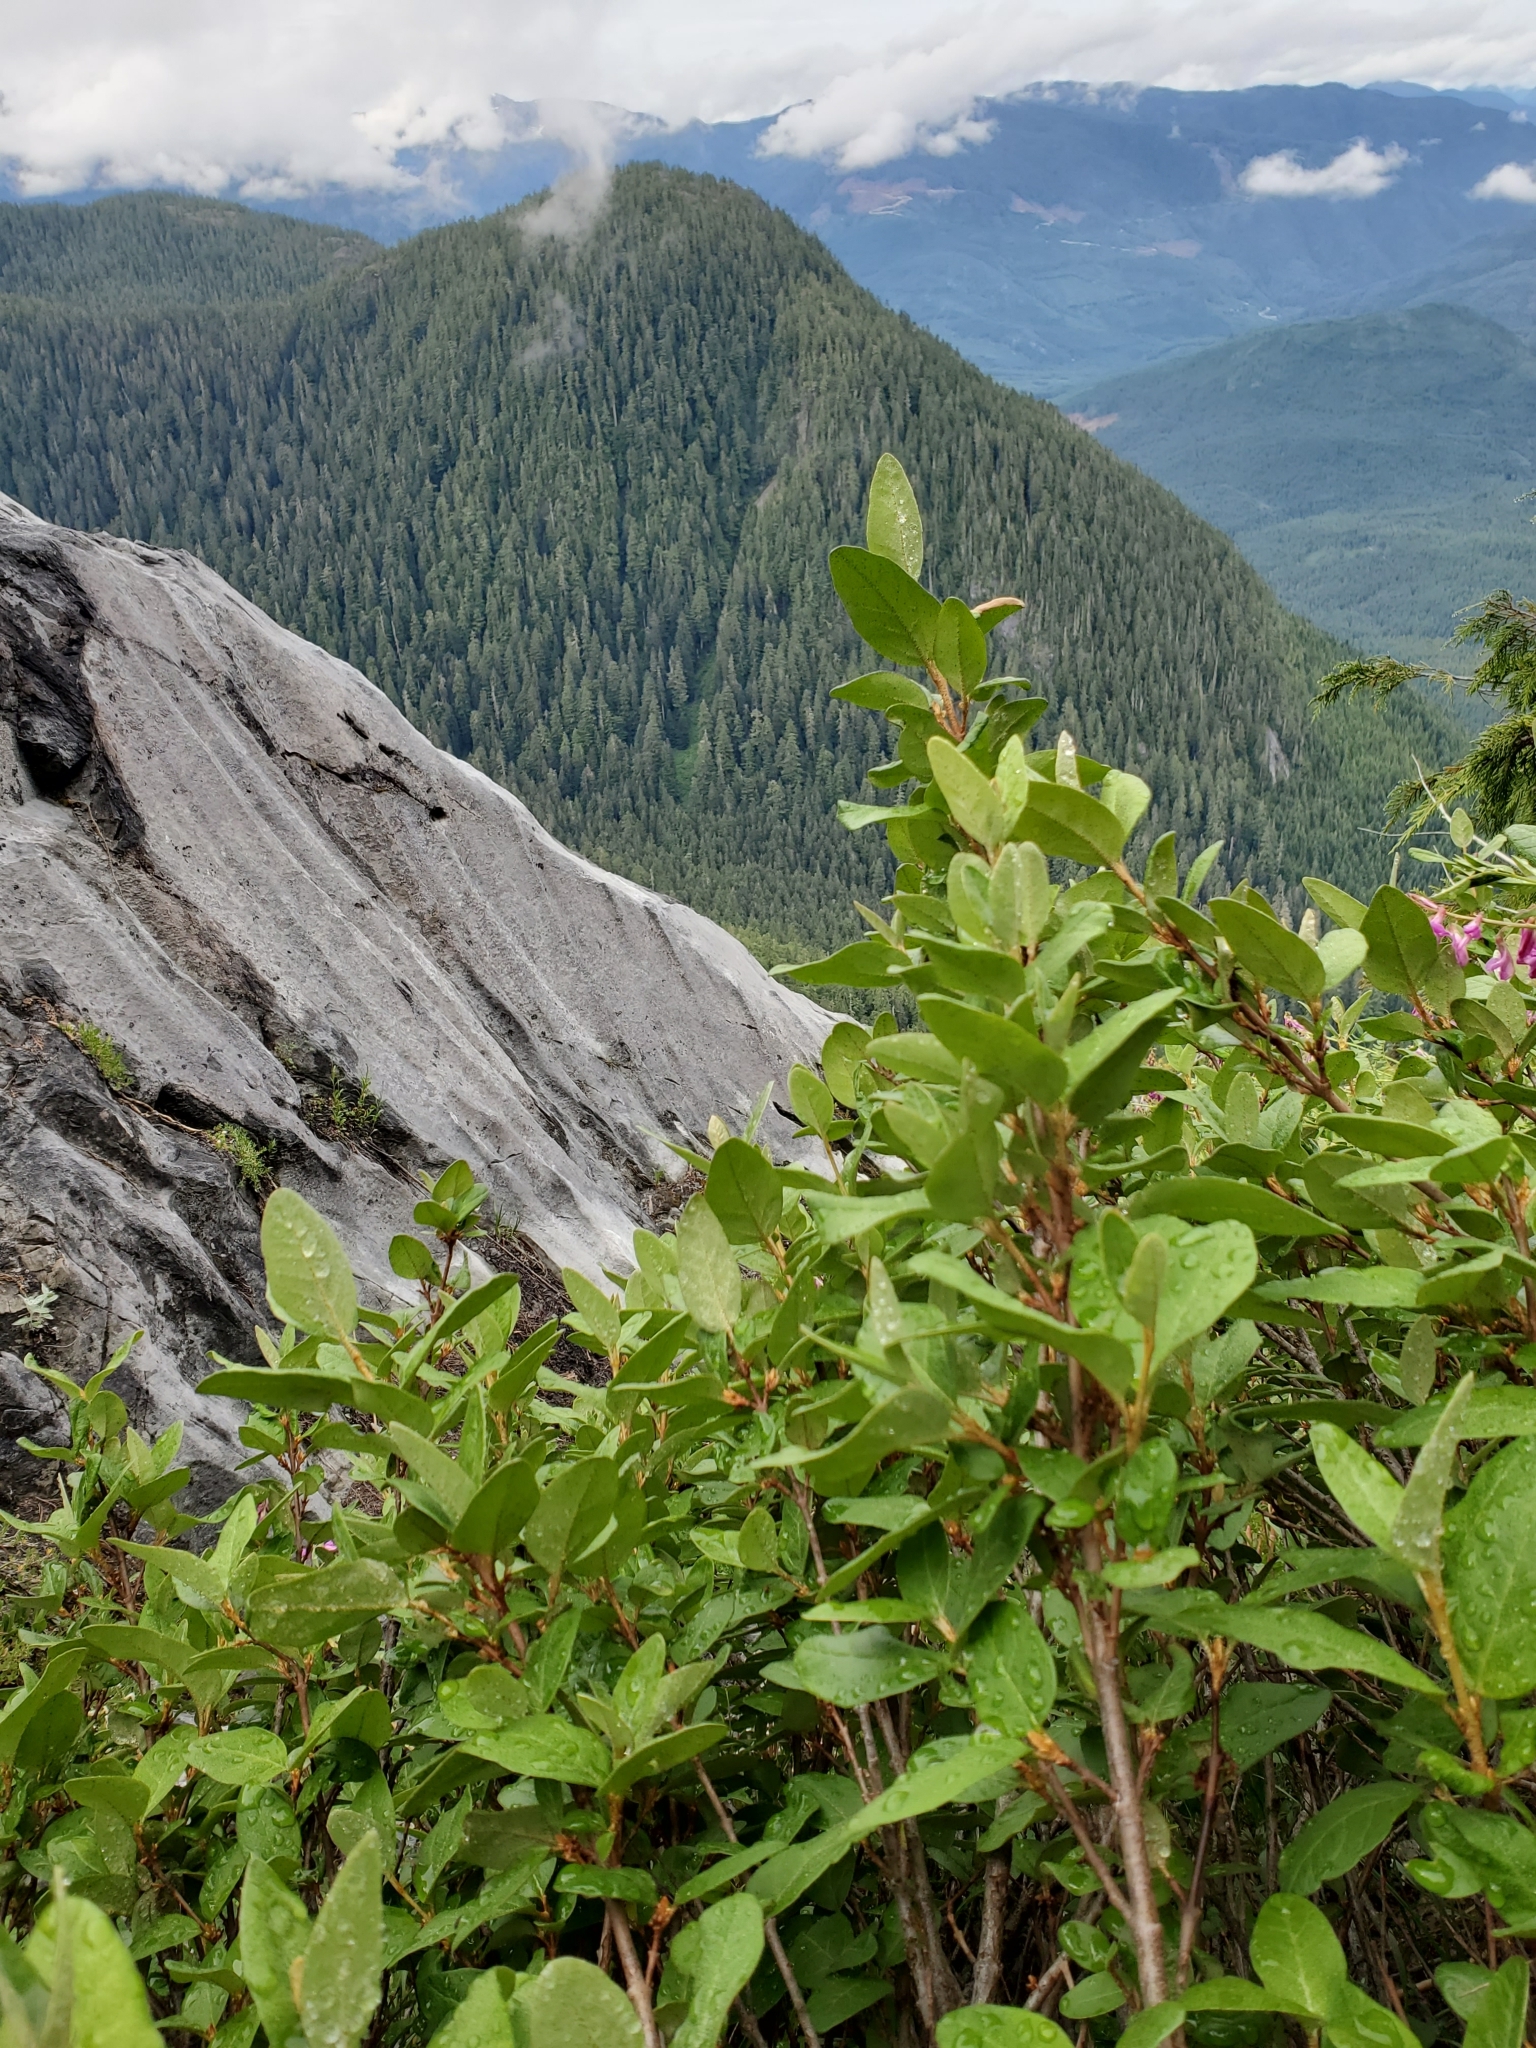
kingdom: Plantae
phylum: Tracheophyta
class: Magnoliopsida
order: Rosales
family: Elaeagnaceae
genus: Shepherdia
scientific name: Shepherdia canadensis
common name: Soapberry
